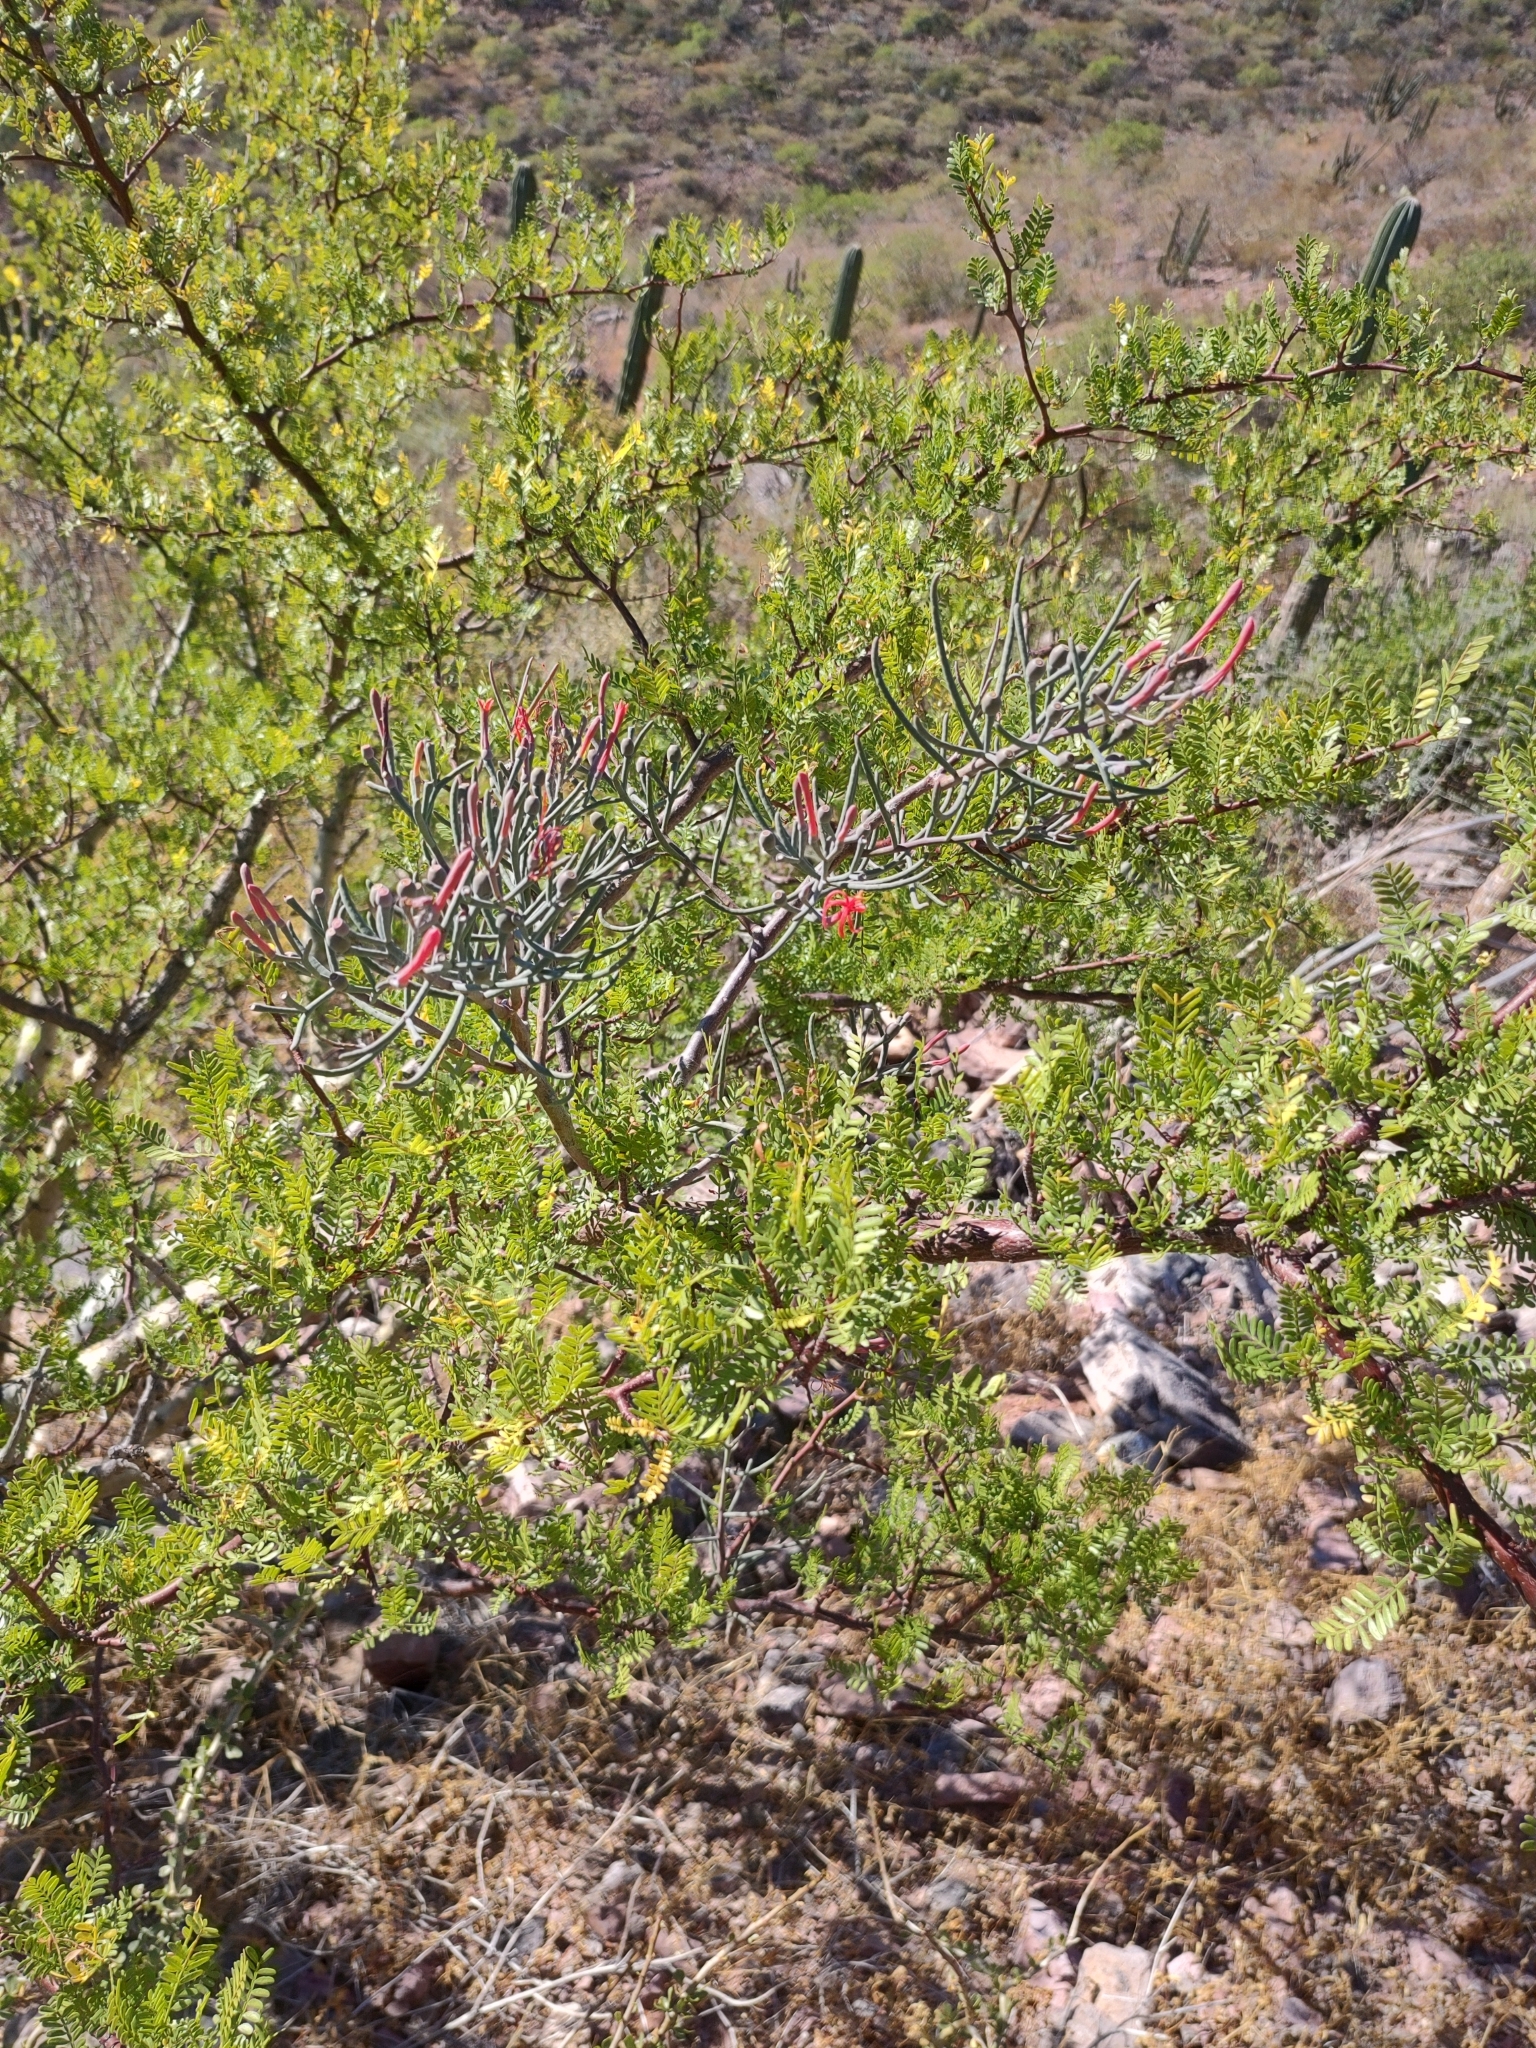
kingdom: Plantae
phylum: Tracheophyta
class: Magnoliopsida
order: Sapindales
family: Burseraceae
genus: Bursera
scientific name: Bursera microphylla
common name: Elephant tree
